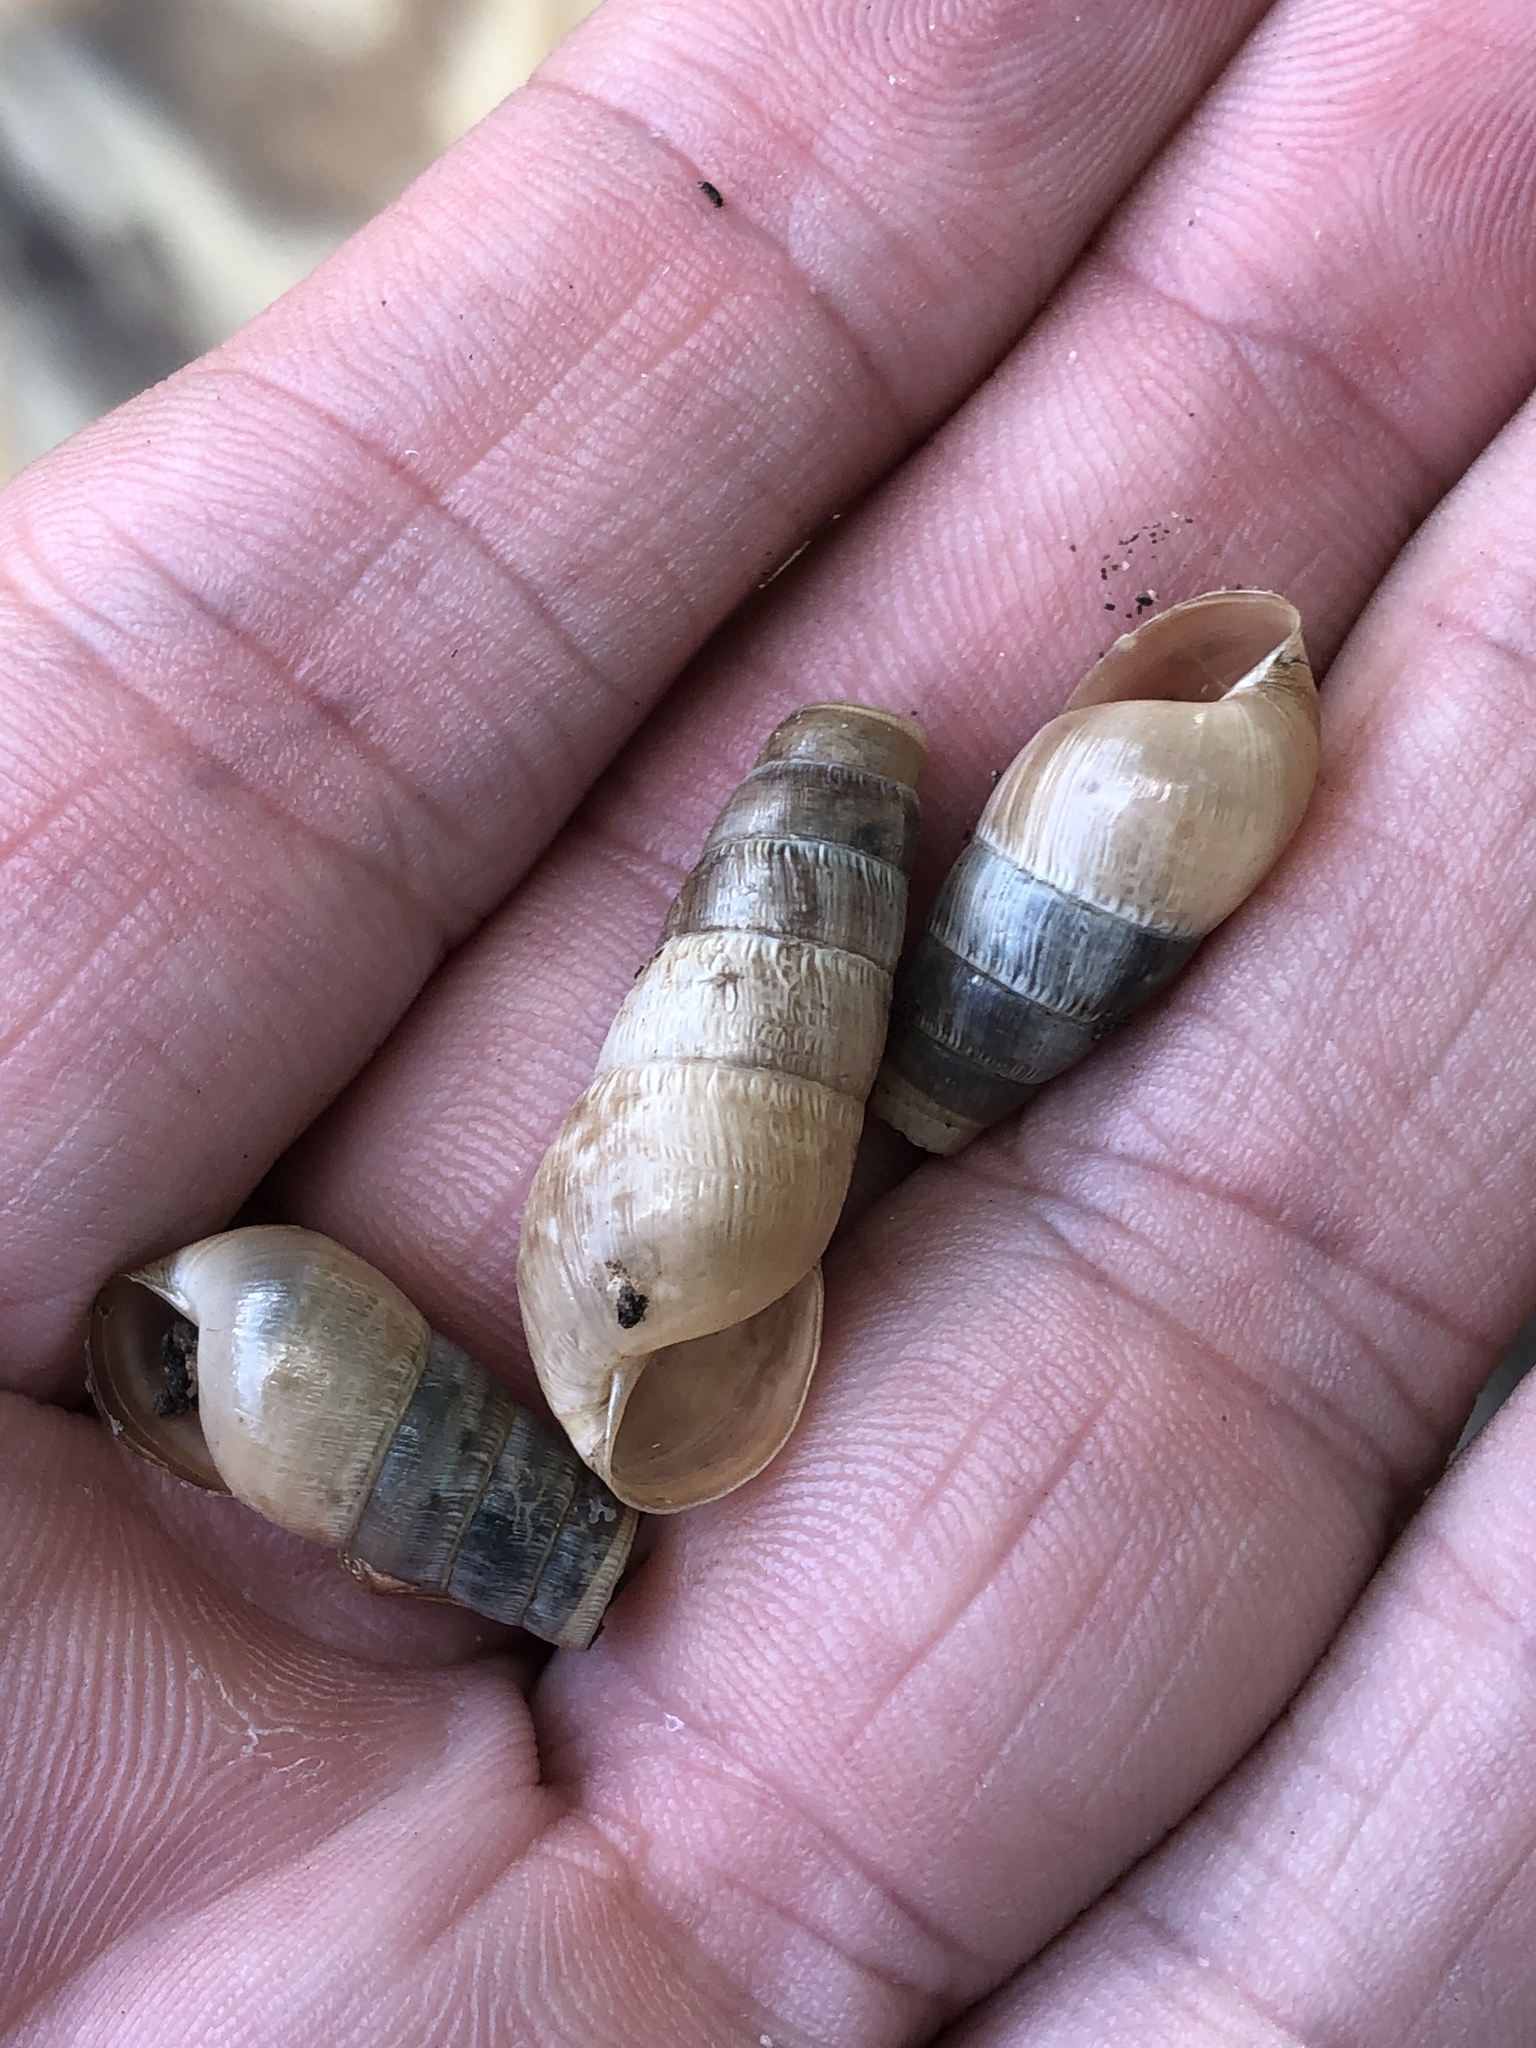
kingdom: Animalia
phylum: Mollusca
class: Gastropoda
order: Stylommatophora
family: Achatinidae
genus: Rumina
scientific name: Rumina decollata
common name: Decollate snail
